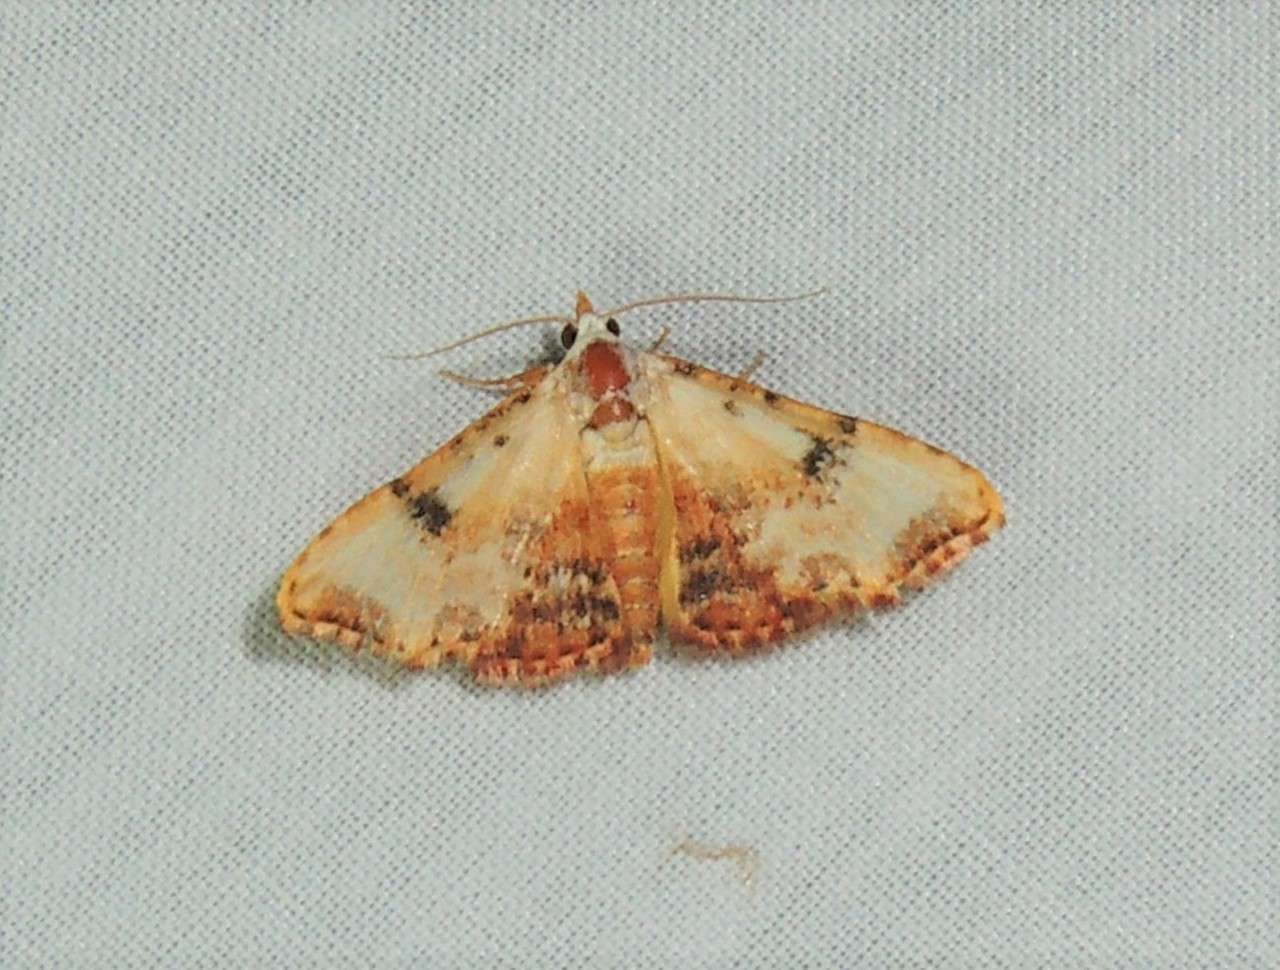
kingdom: Animalia
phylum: Arthropoda
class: Insecta
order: Lepidoptera
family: Erebidae
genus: Corgatha
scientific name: Corgatha molybdophaes
